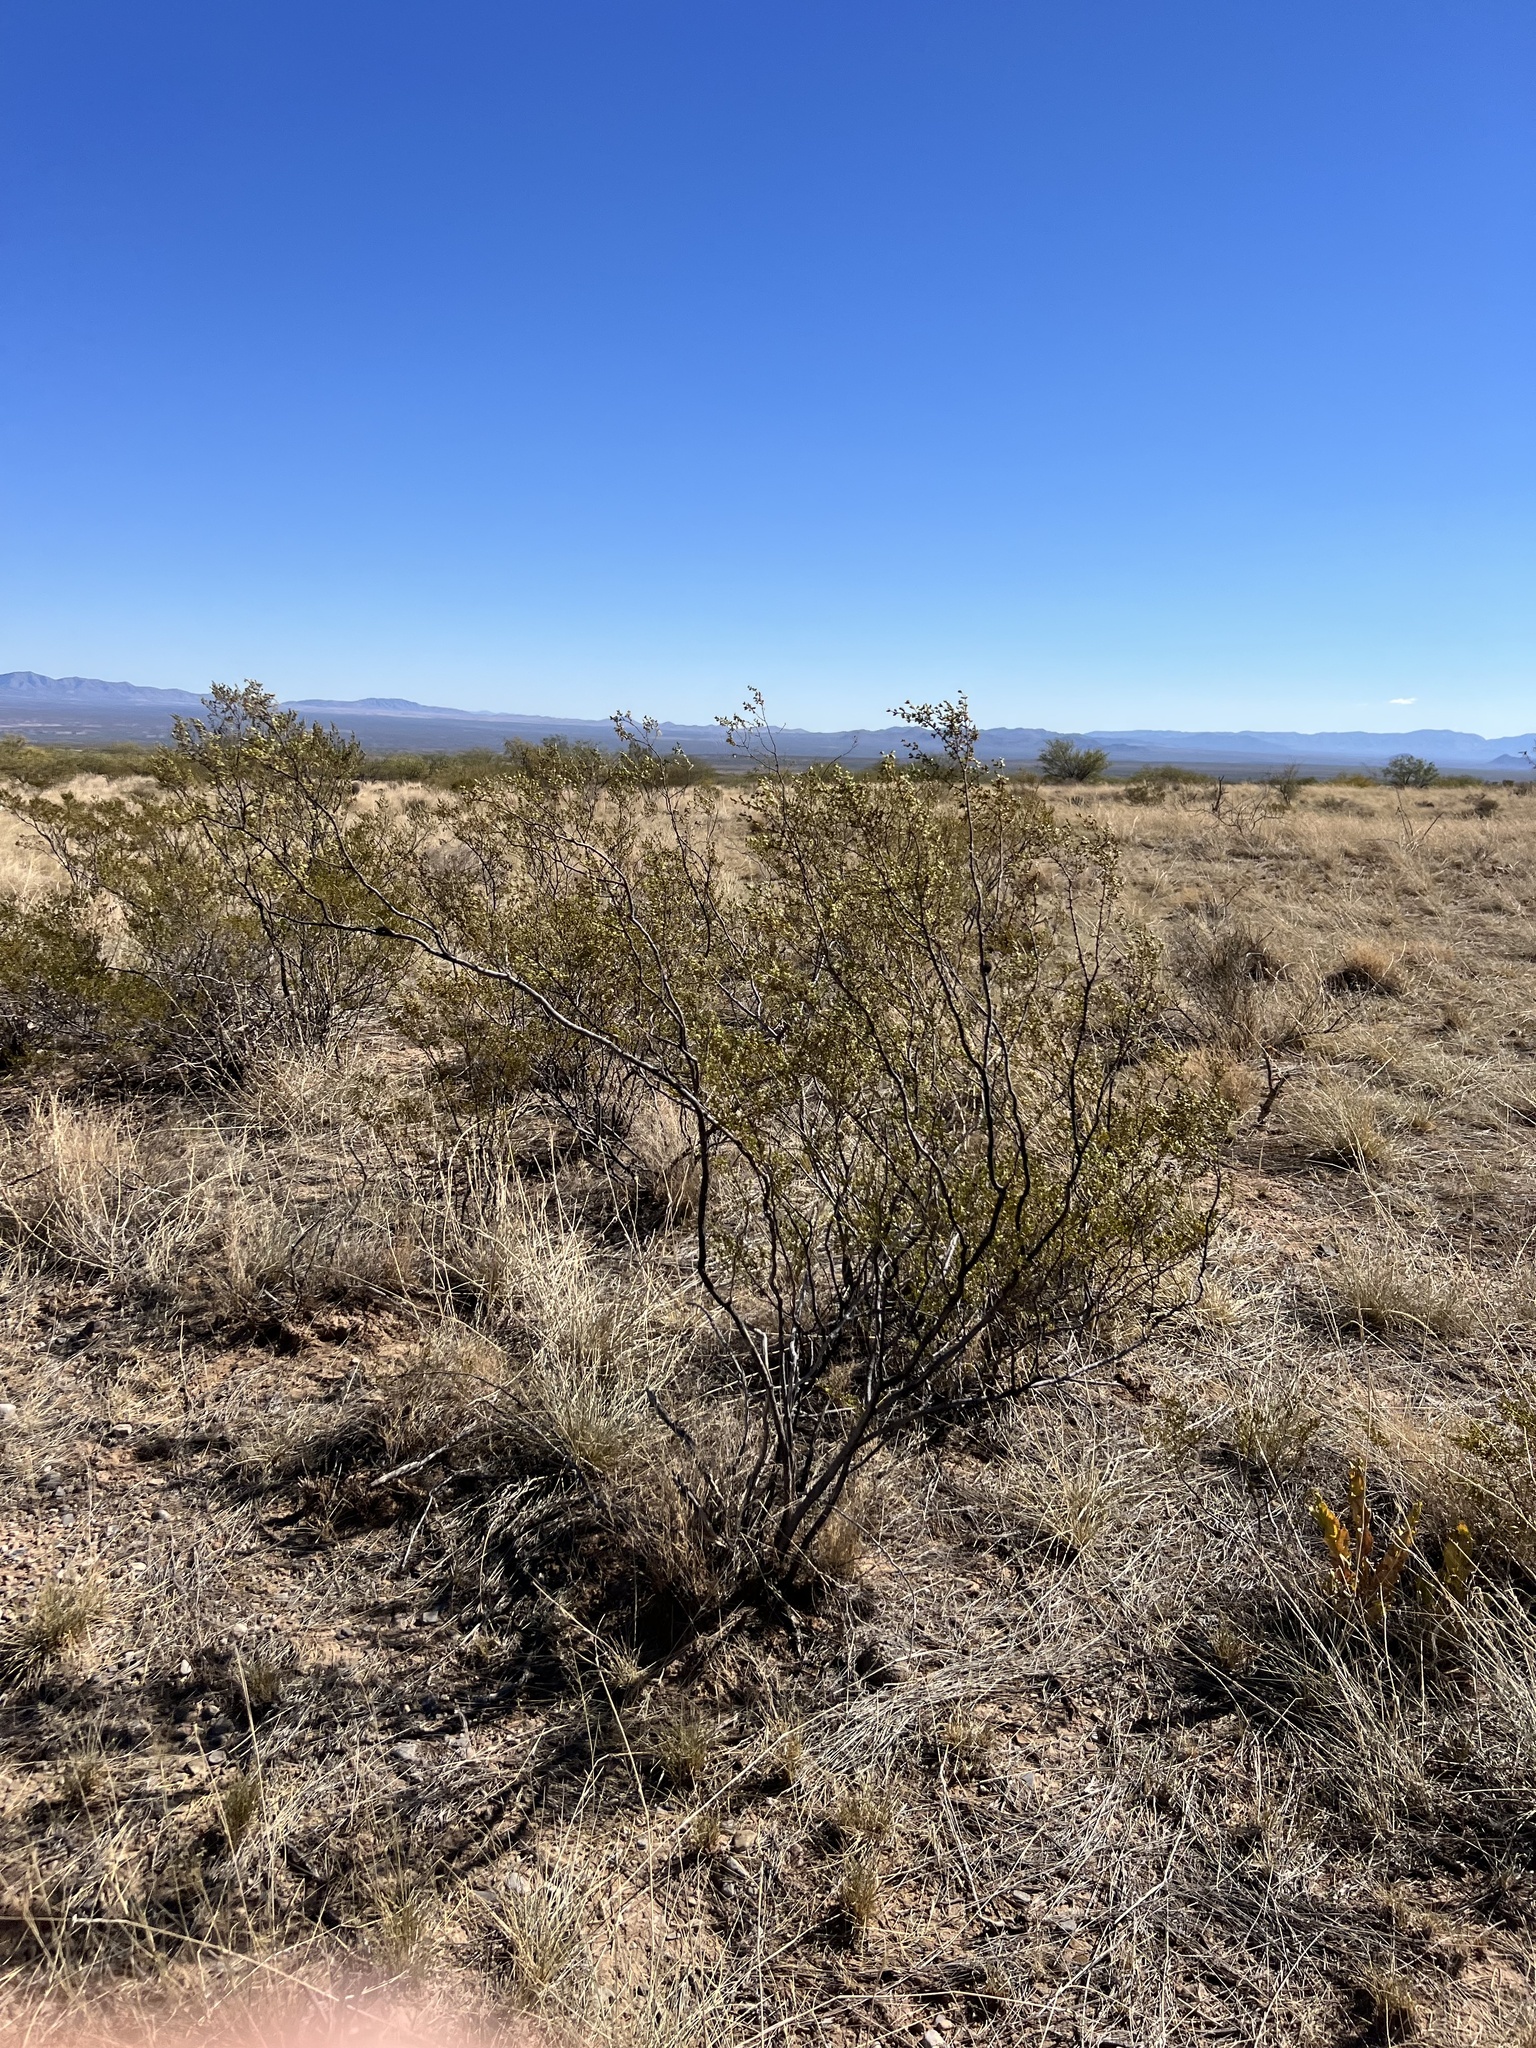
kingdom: Plantae
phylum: Tracheophyta
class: Magnoliopsida
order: Zygophyllales
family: Zygophyllaceae
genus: Larrea
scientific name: Larrea tridentata
